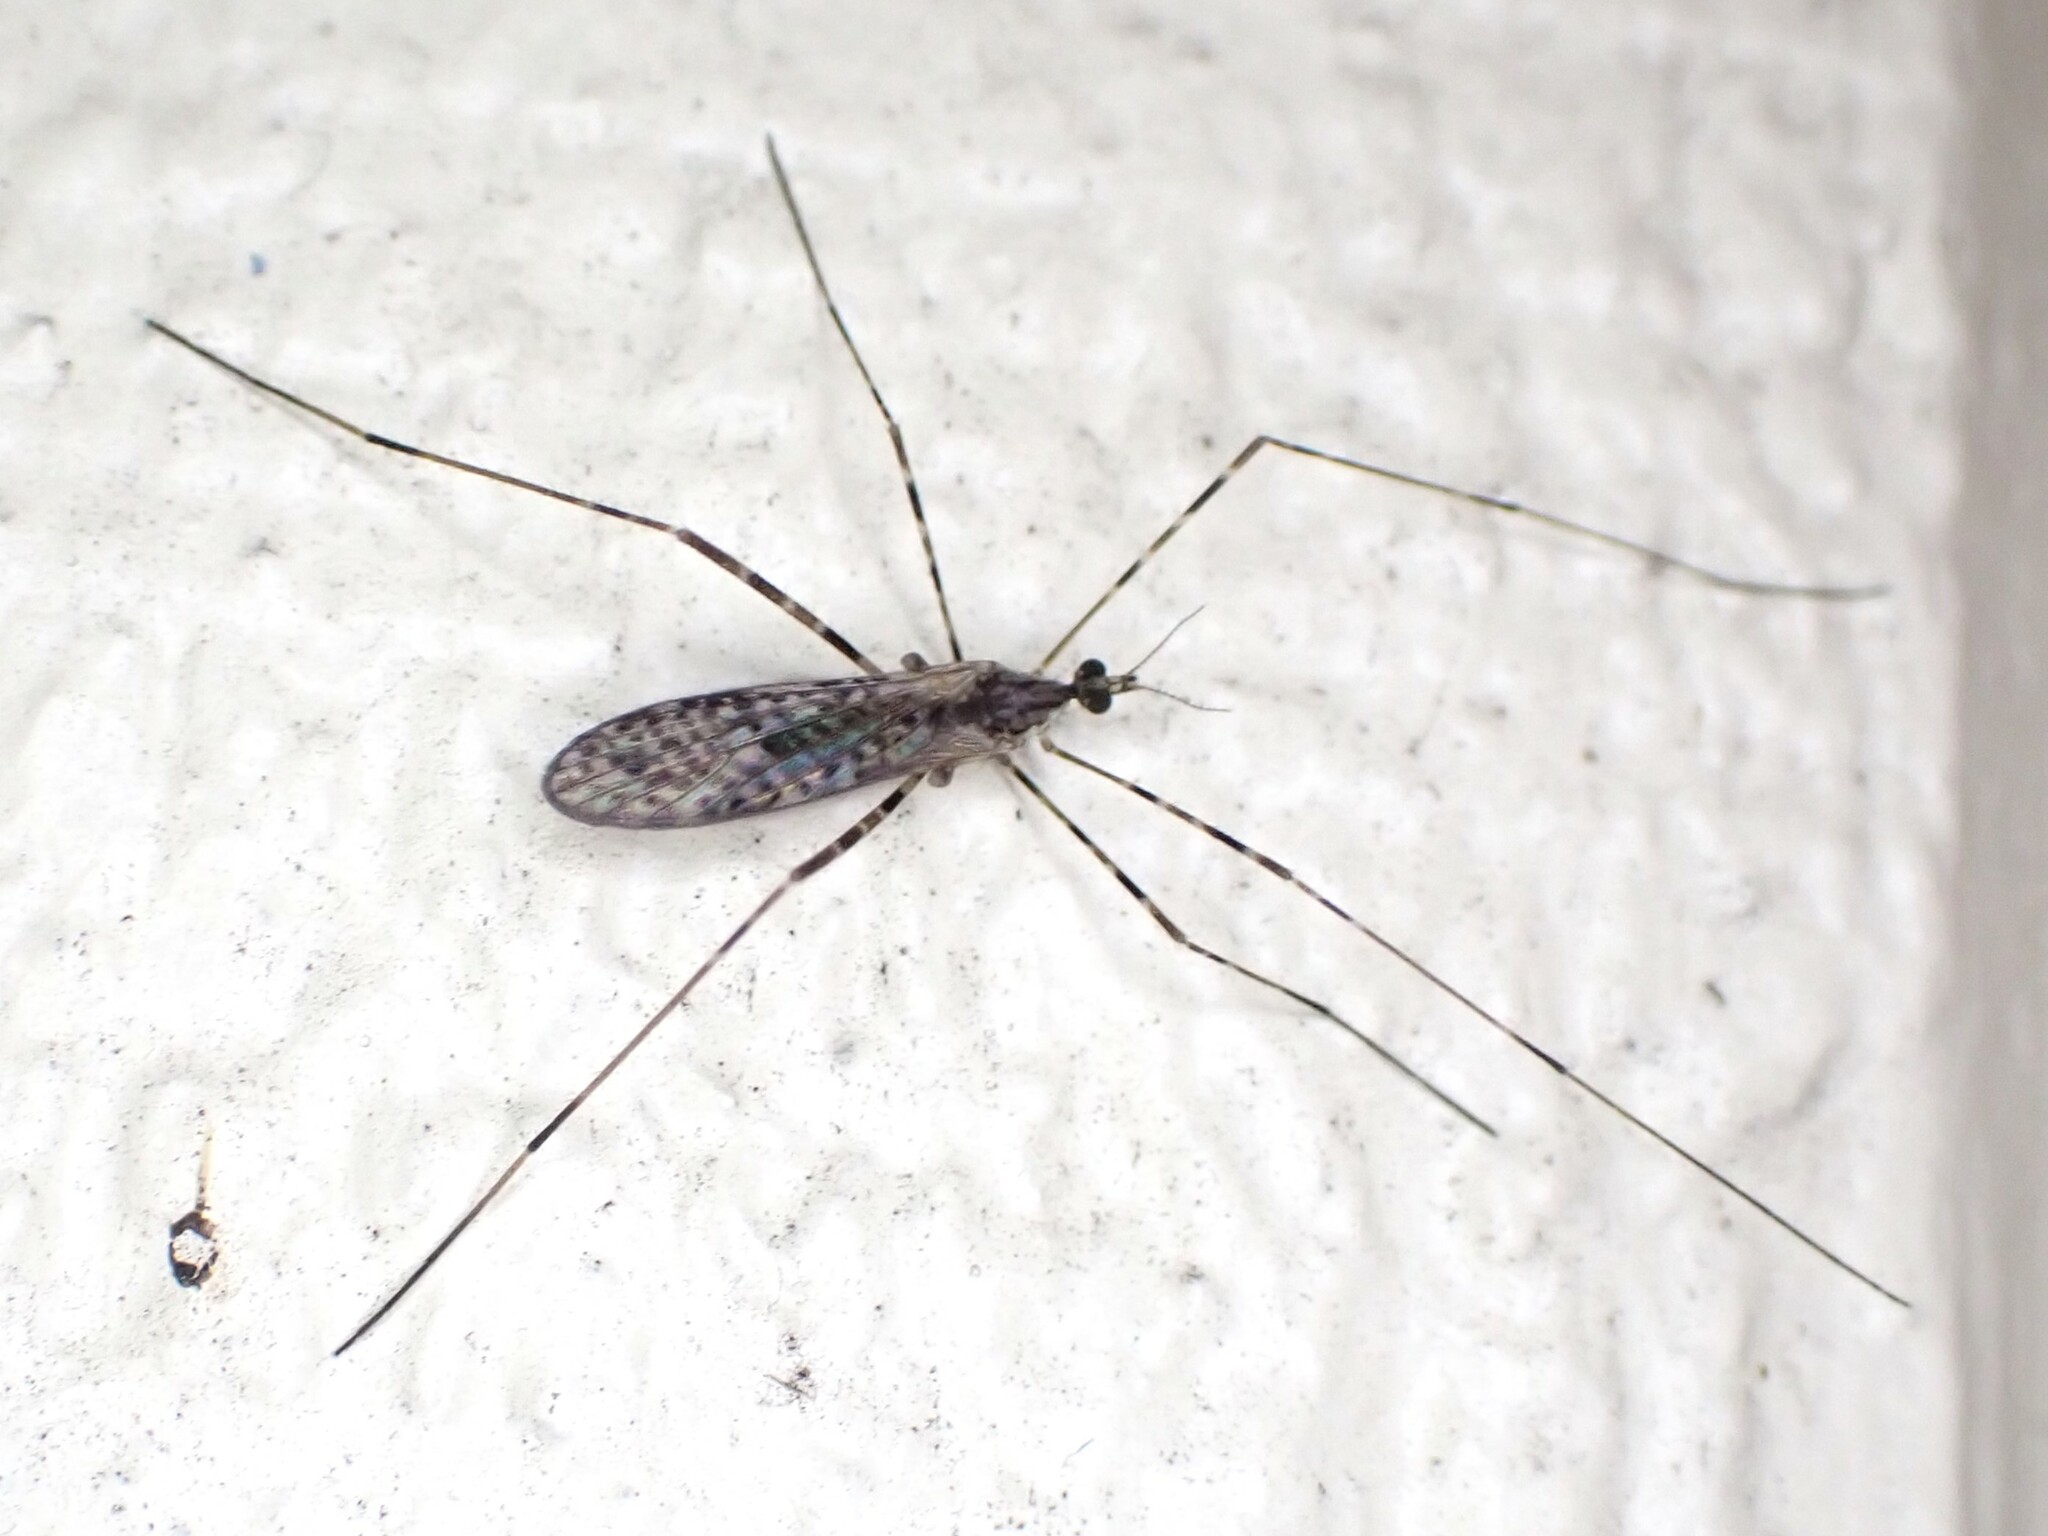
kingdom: Animalia
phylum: Arthropoda
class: Insecta
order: Diptera
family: Limoniidae
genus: Amphineurus
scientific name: Amphineurus hudsoni
